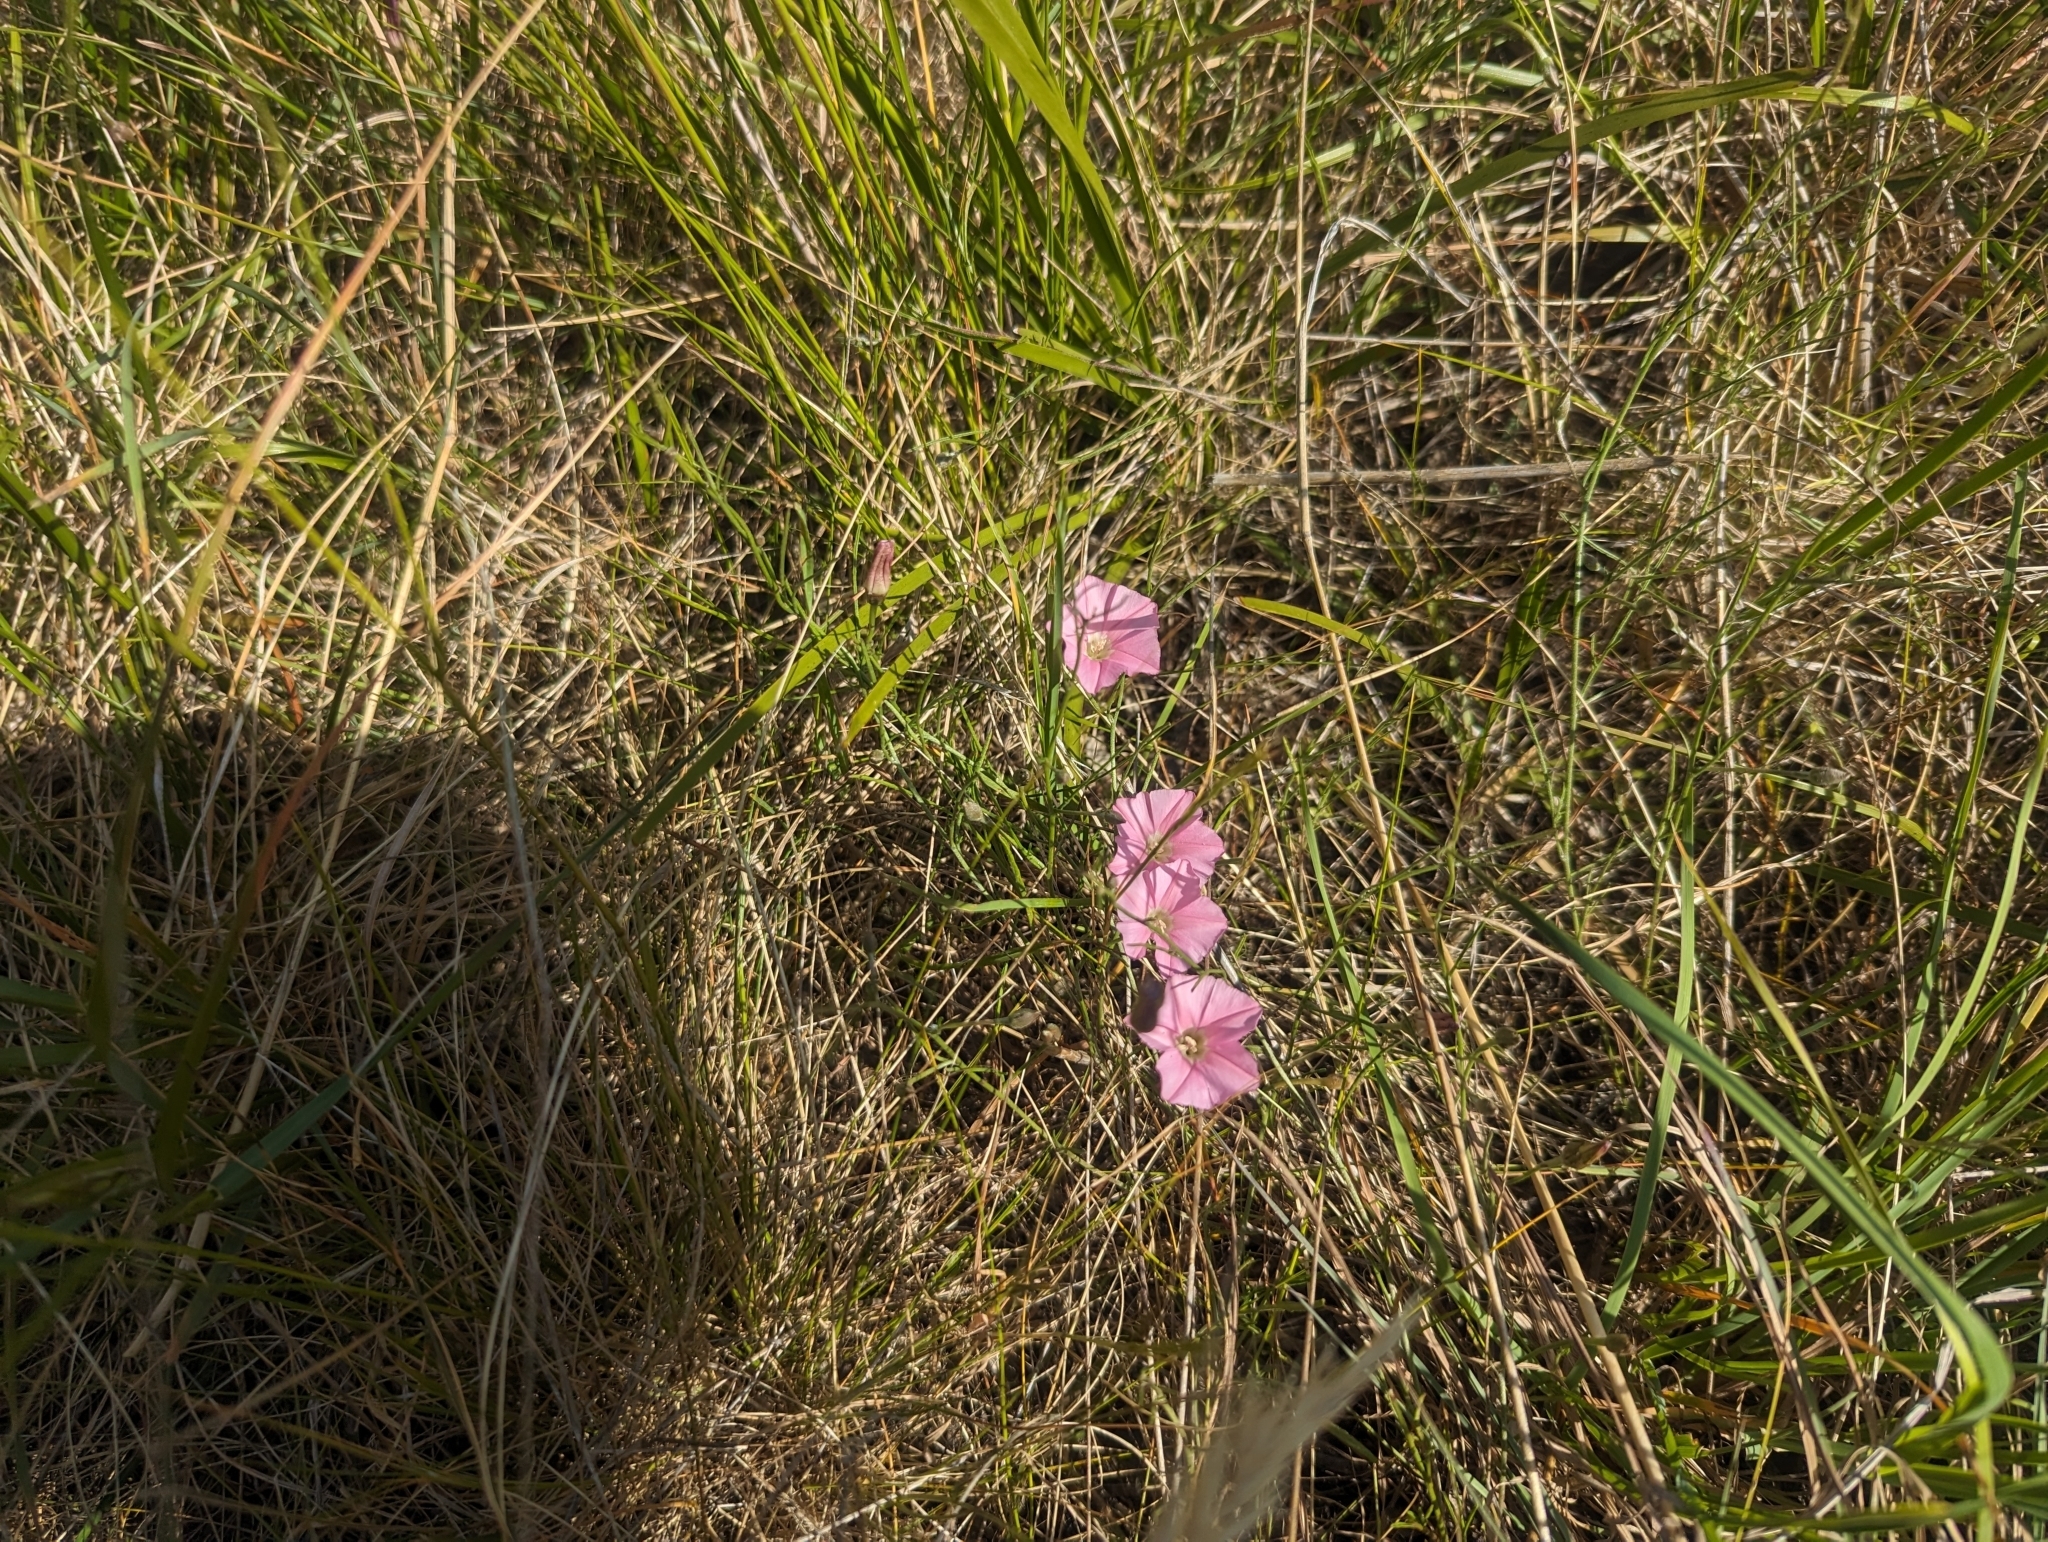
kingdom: Plantae
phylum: Tracheophyta
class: Magnoliopsida
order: Solanales
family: Convolvulaceae
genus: Convolvulus
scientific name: Convolvulus angustissimus
